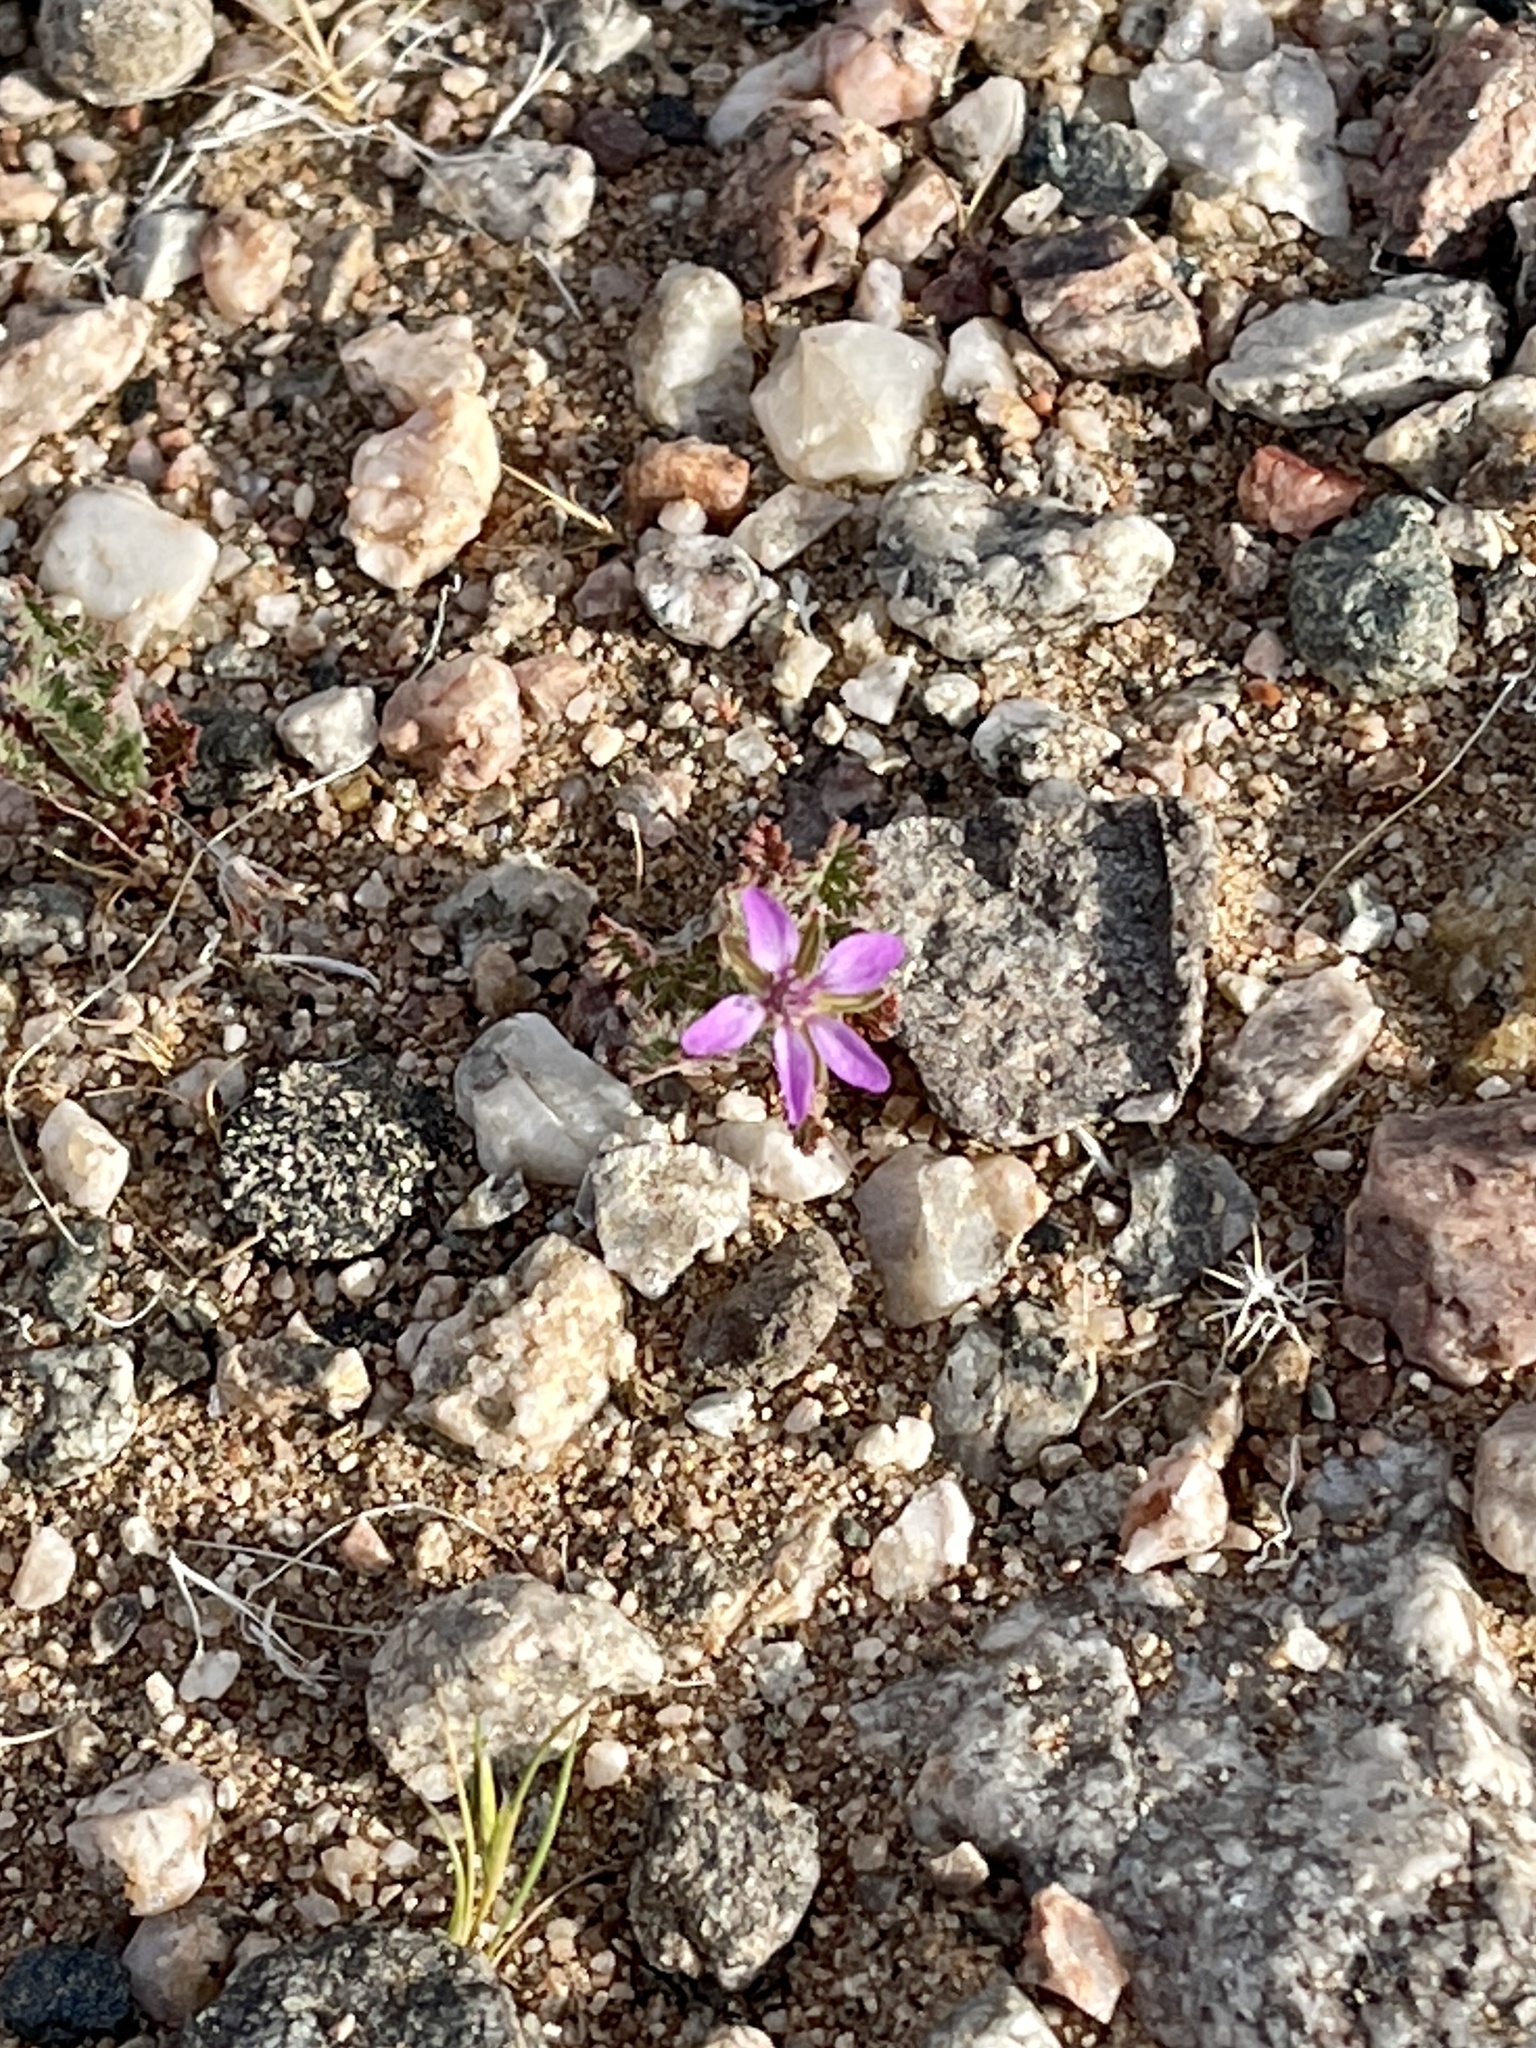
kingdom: Plantae
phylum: Tracheophyta
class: Magnoliopsida
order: Geraniales
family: Geraniaceae
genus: Erodium
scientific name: Erodium cicutarium
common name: Common stork's-bill
